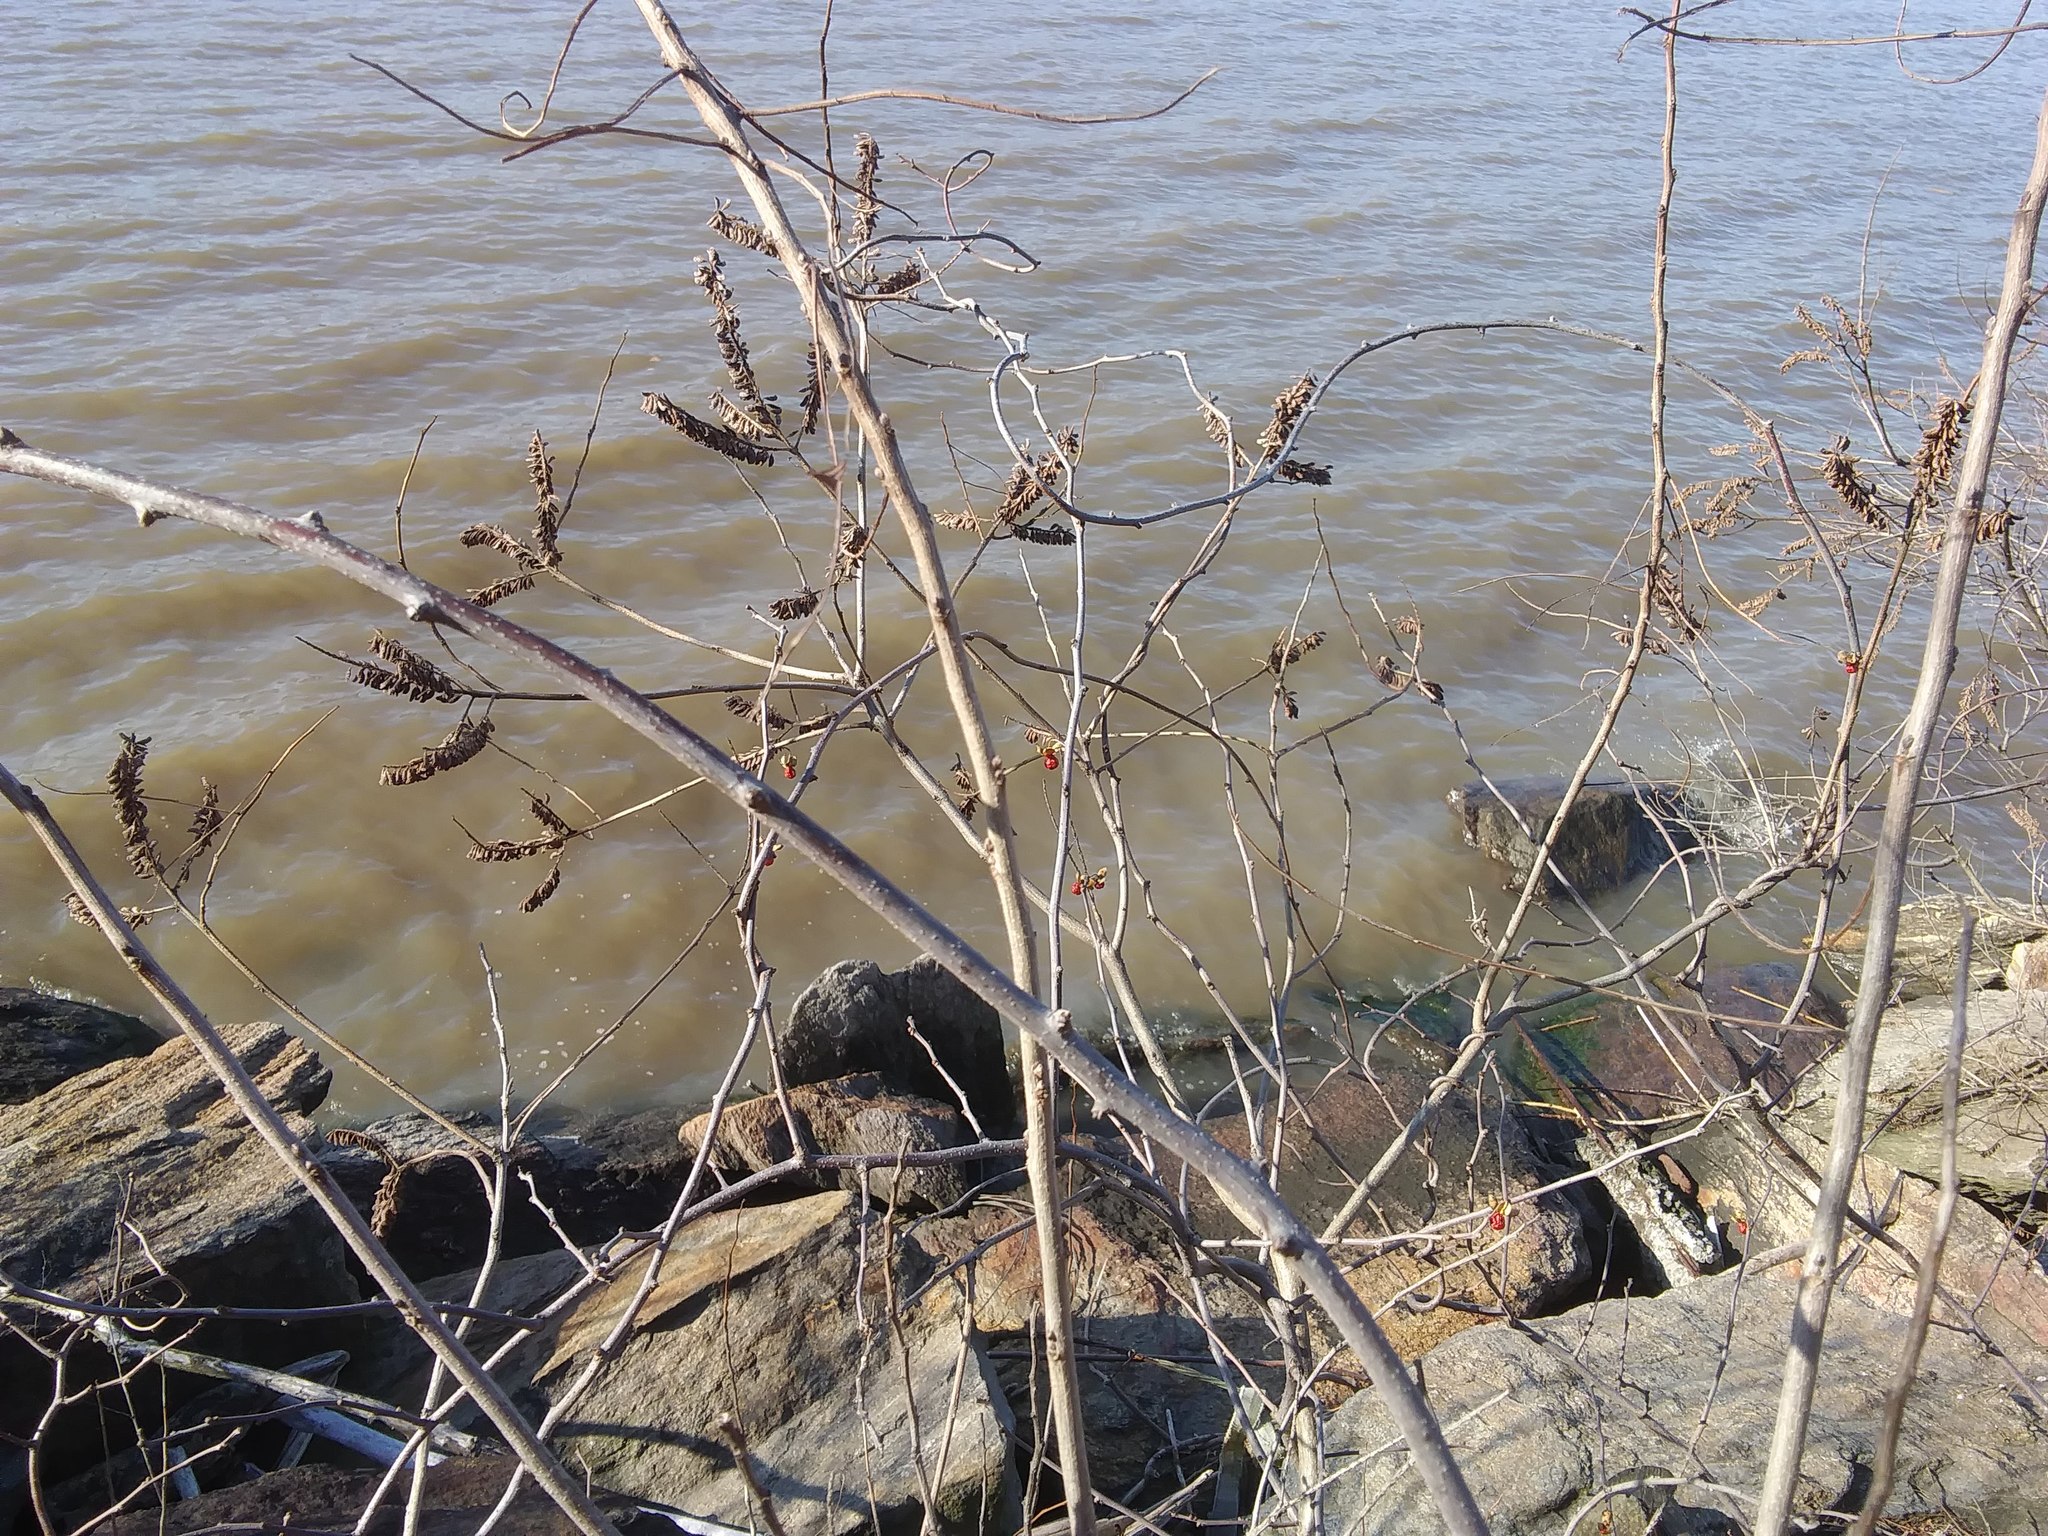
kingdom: Plantae
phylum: Tracheophyta
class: Magnoliopsida
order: Fabales
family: Fabaceae
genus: Amorpha
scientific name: Amorpha fruticosa
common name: False indigo
